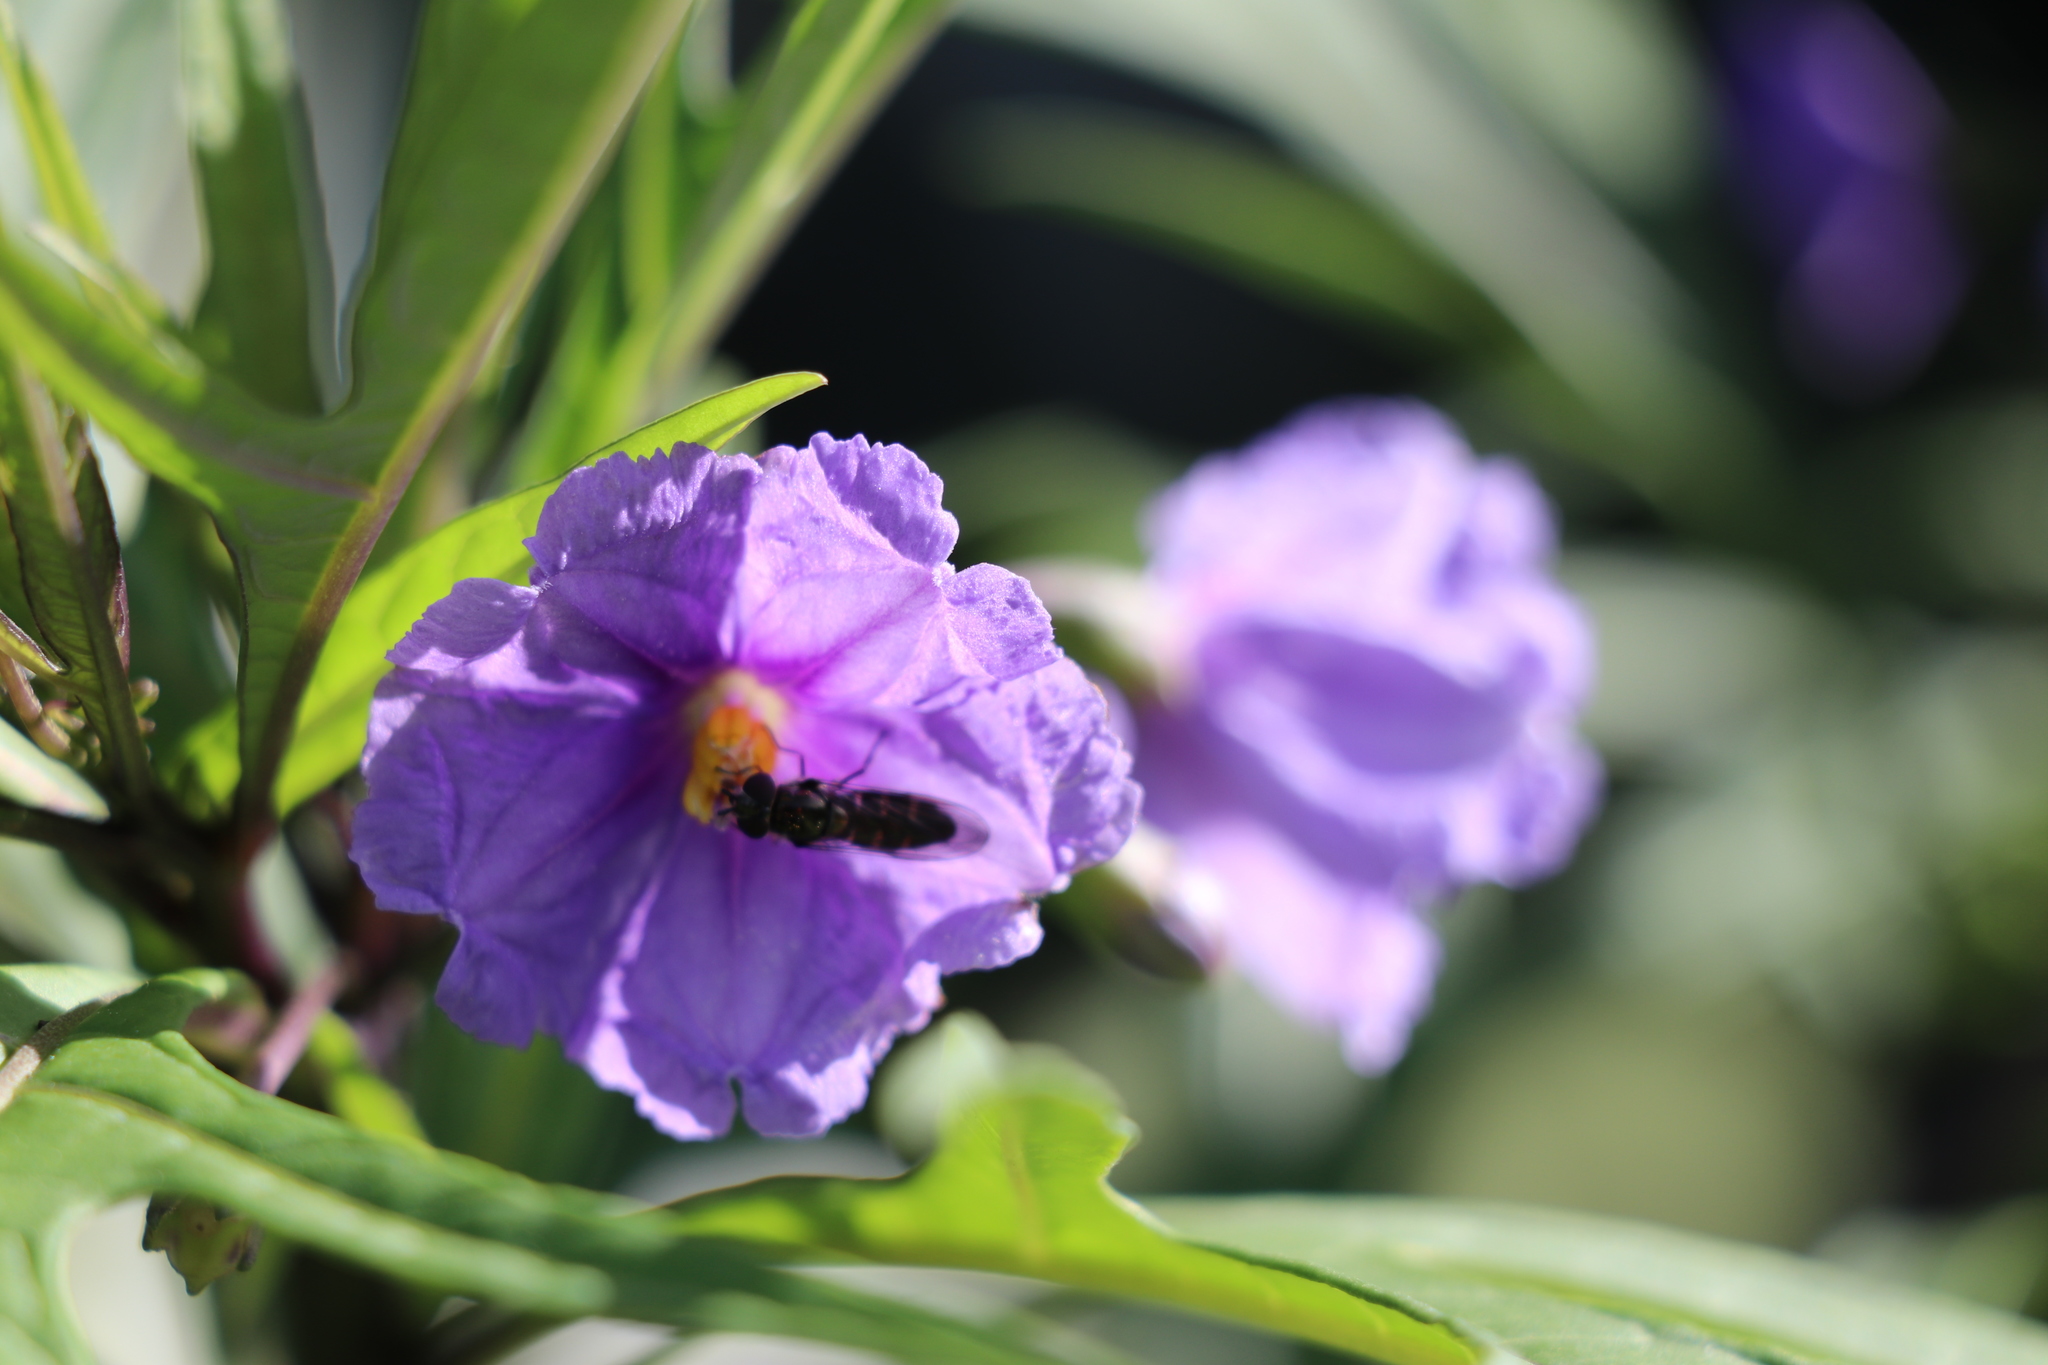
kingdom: Animalia
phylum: Arthropoda
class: Insecta
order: Diptera
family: Syrphidae
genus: Melangyna
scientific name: Melangyna novaezelandiae
